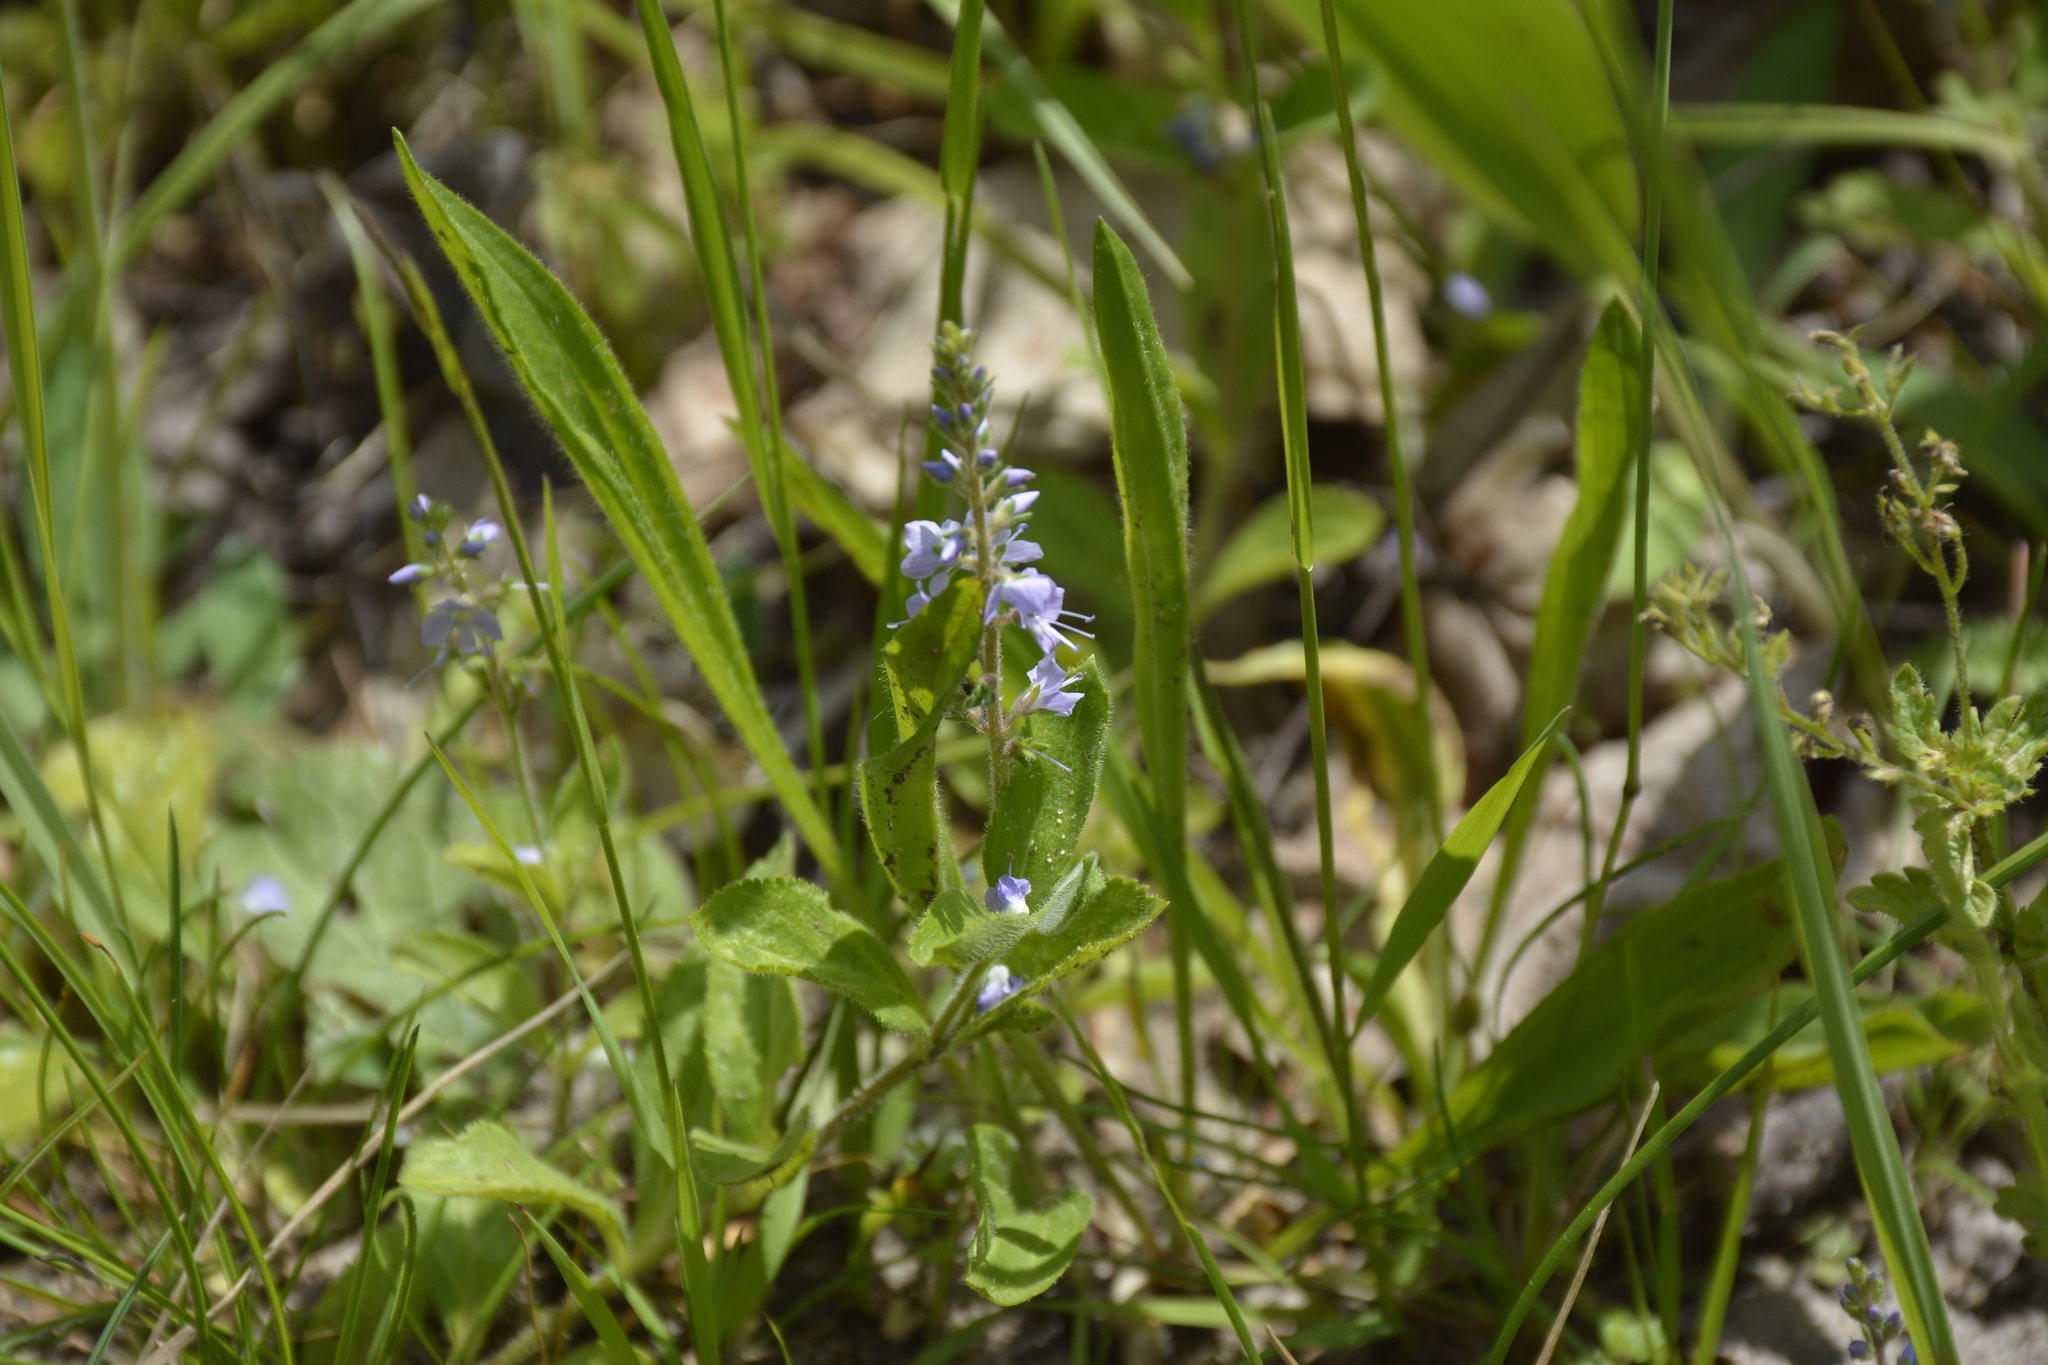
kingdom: Plantae
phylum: Tracheophyta
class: Magnoliopsida
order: Lamiales
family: Plantaginaceae
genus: Veronica
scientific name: Veronica officinalis
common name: Common speedwell
